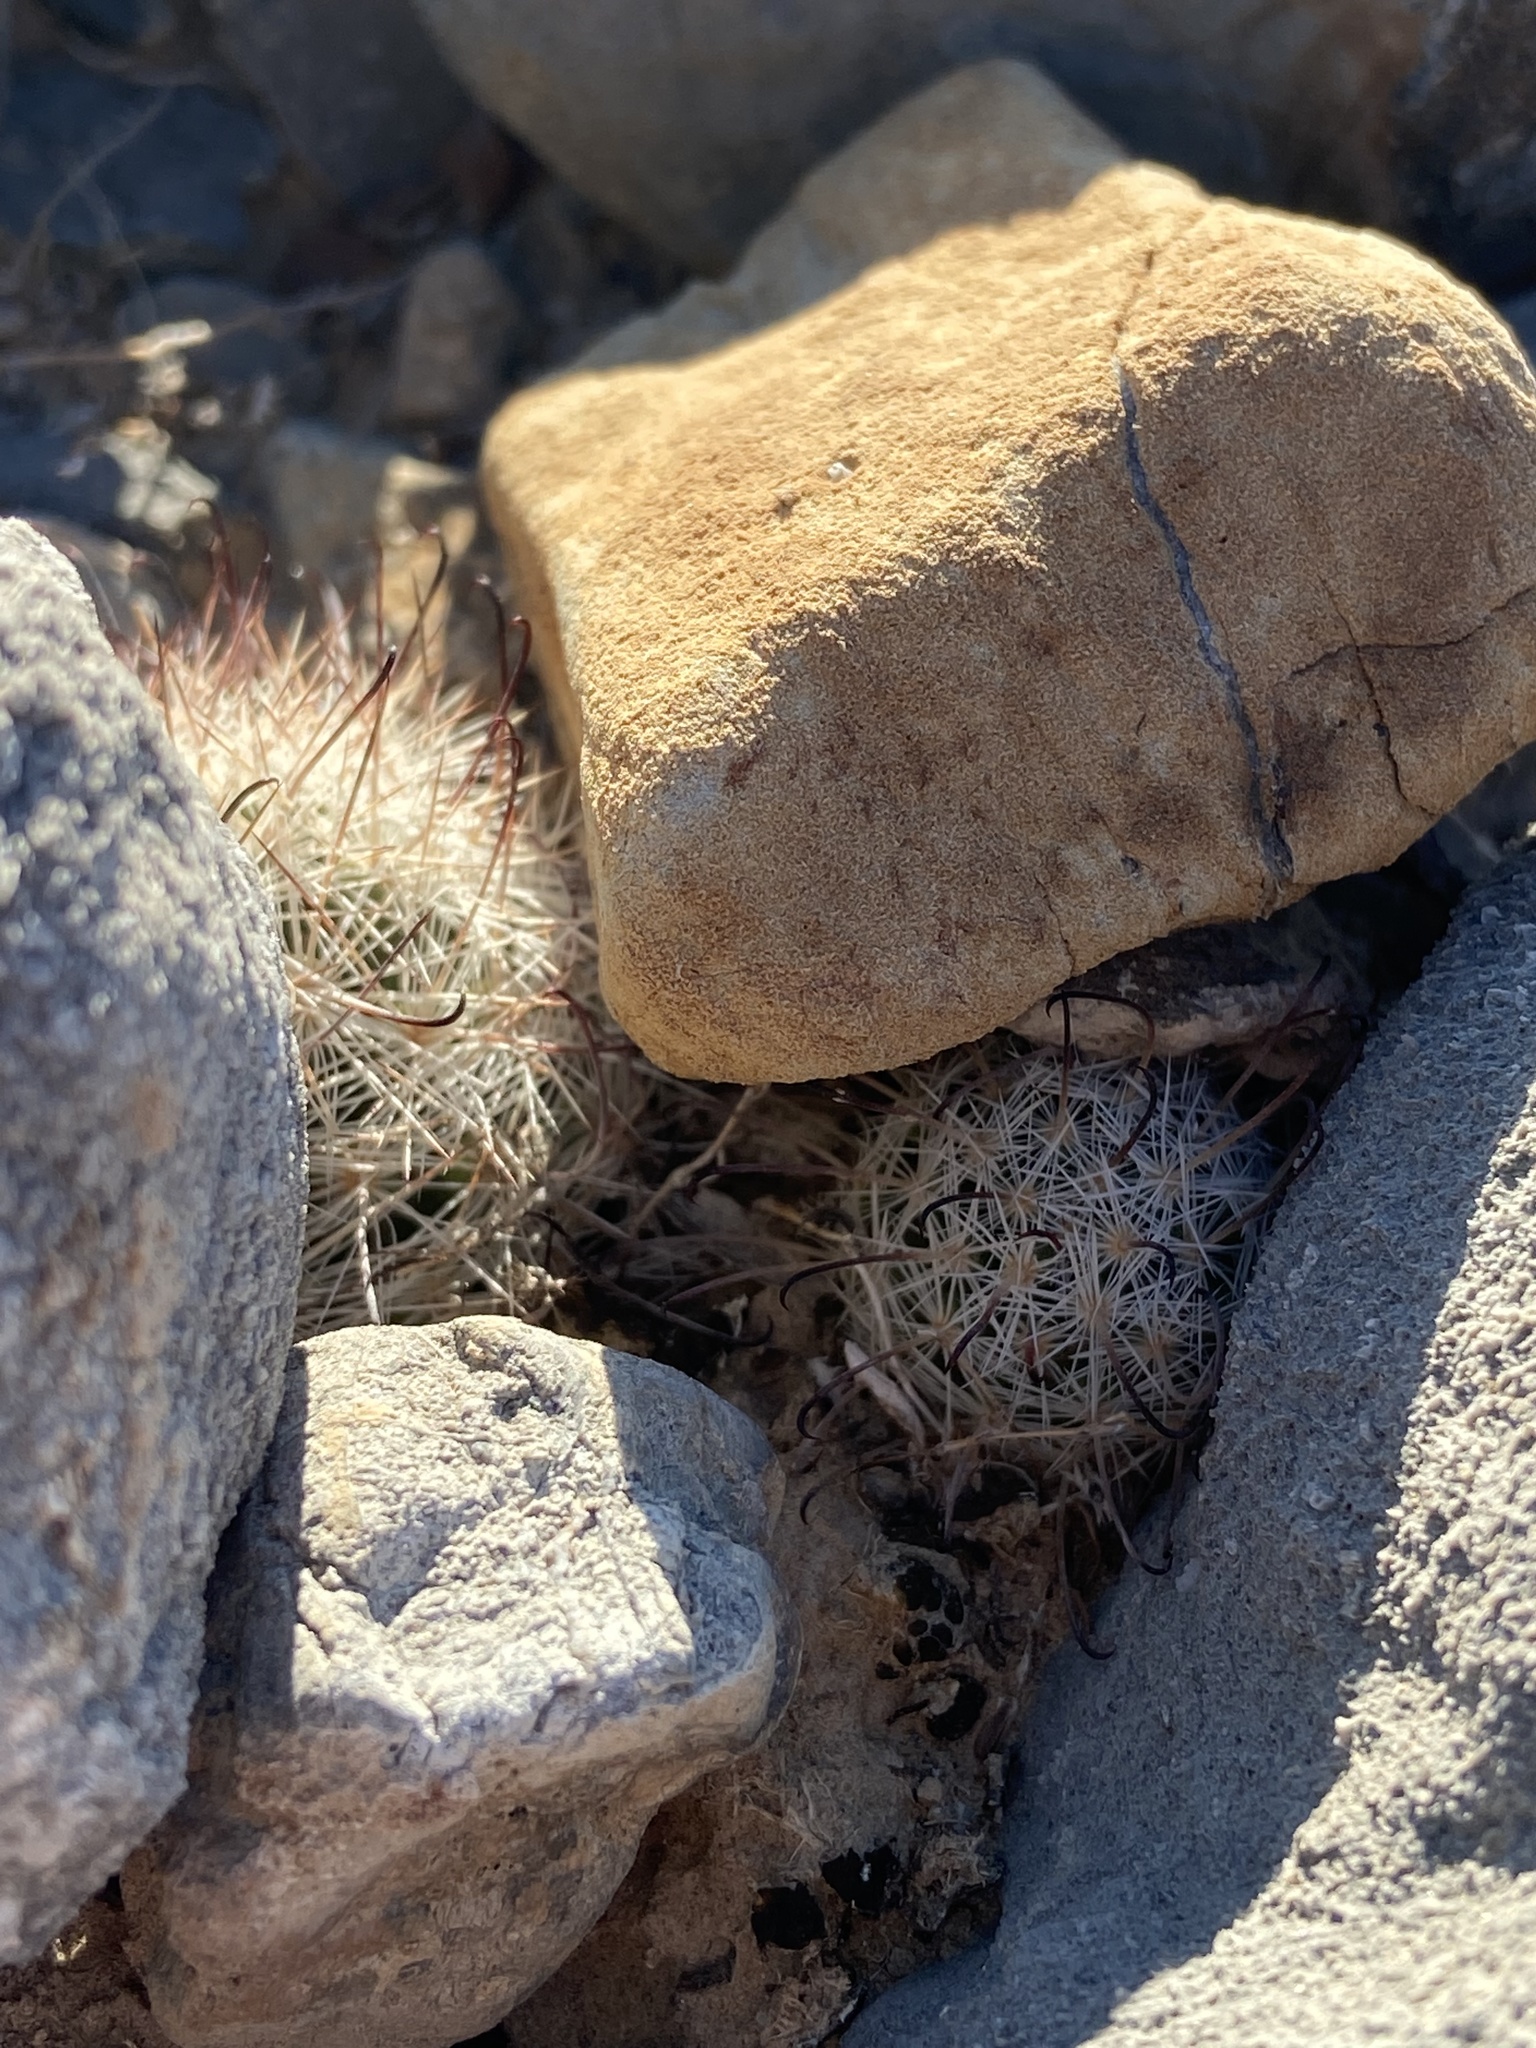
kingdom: Plantae
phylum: Tracheophyta
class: Magnoliopsida
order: Caryophyllales
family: Cactaceae
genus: Cochemiea
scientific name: Cochemiea tetrancistra
